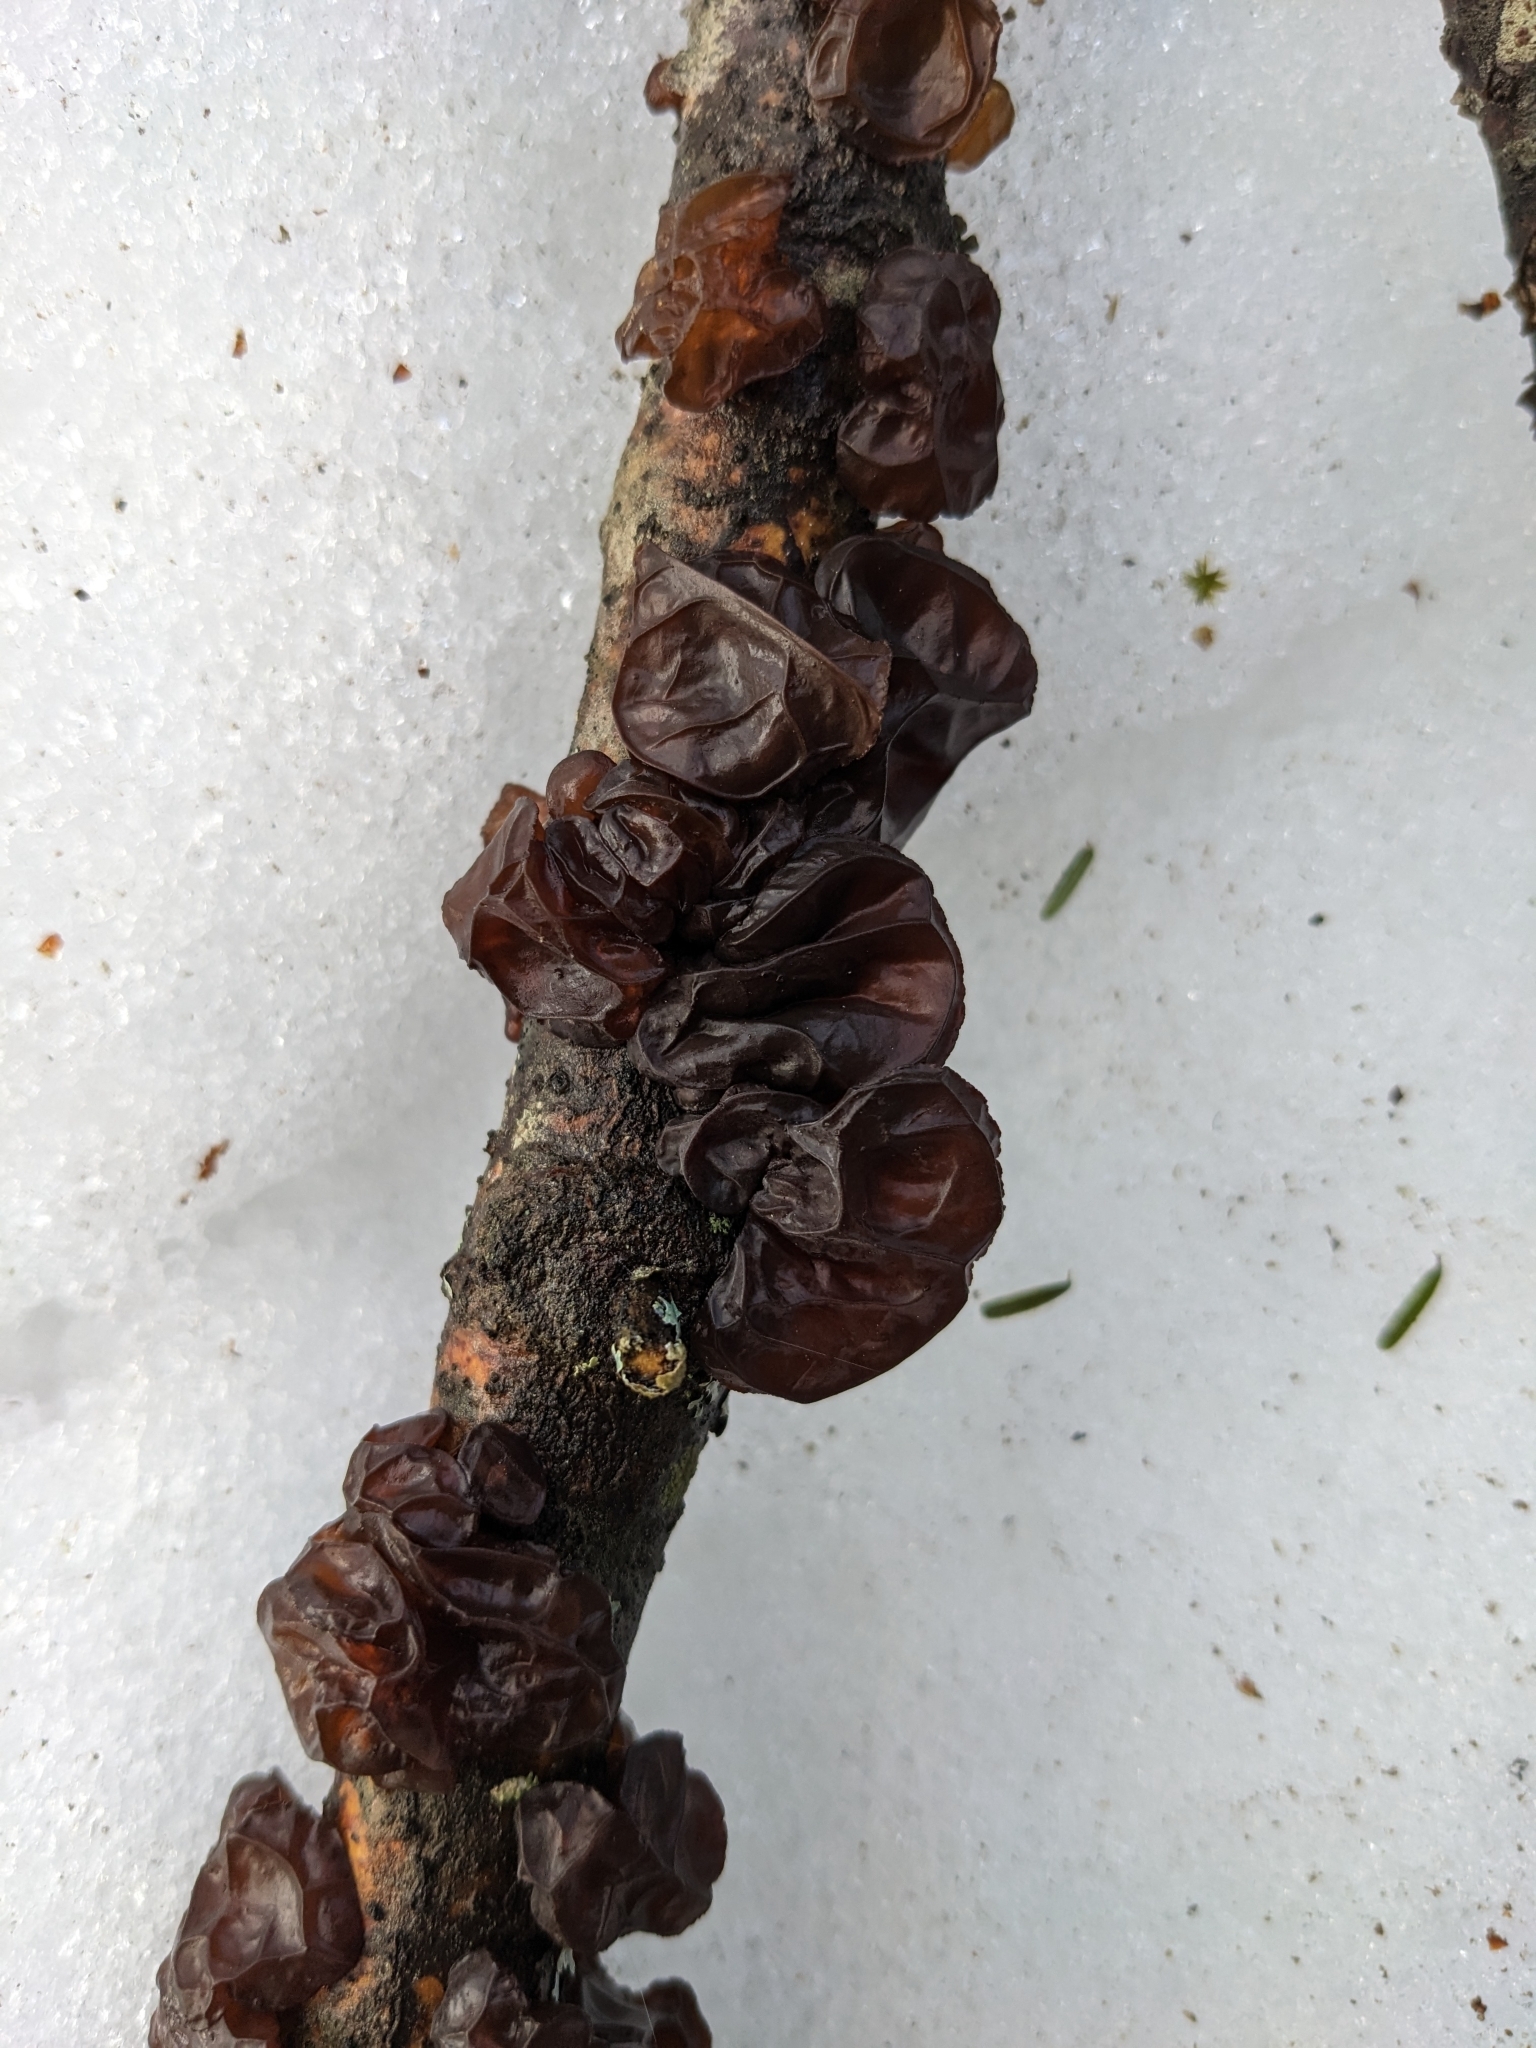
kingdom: Fungi
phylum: Basidiomycota
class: Agaricomycetes
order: Auriculariales
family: Auriculariaceae
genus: Exidia
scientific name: Exidia
